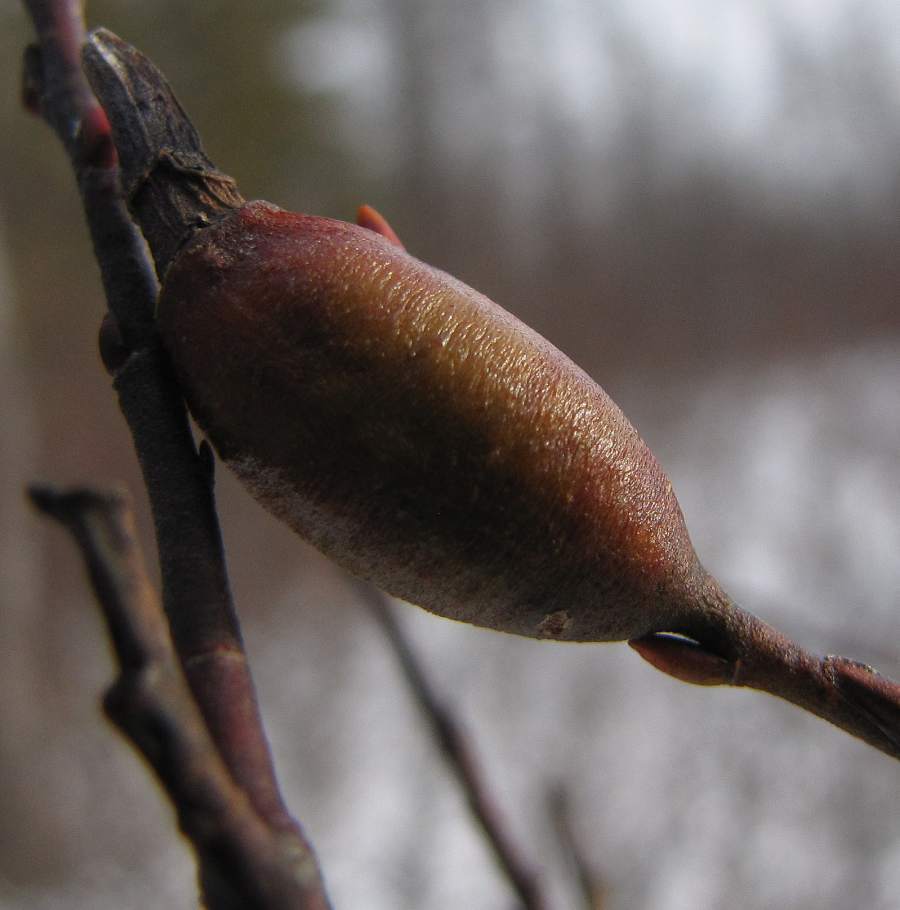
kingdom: Animalia
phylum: Arthropoda
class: Insecta
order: Diptera
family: Cecidomyiidae
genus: Thecodiplosis
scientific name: Thecodiplosis pinirigidae
